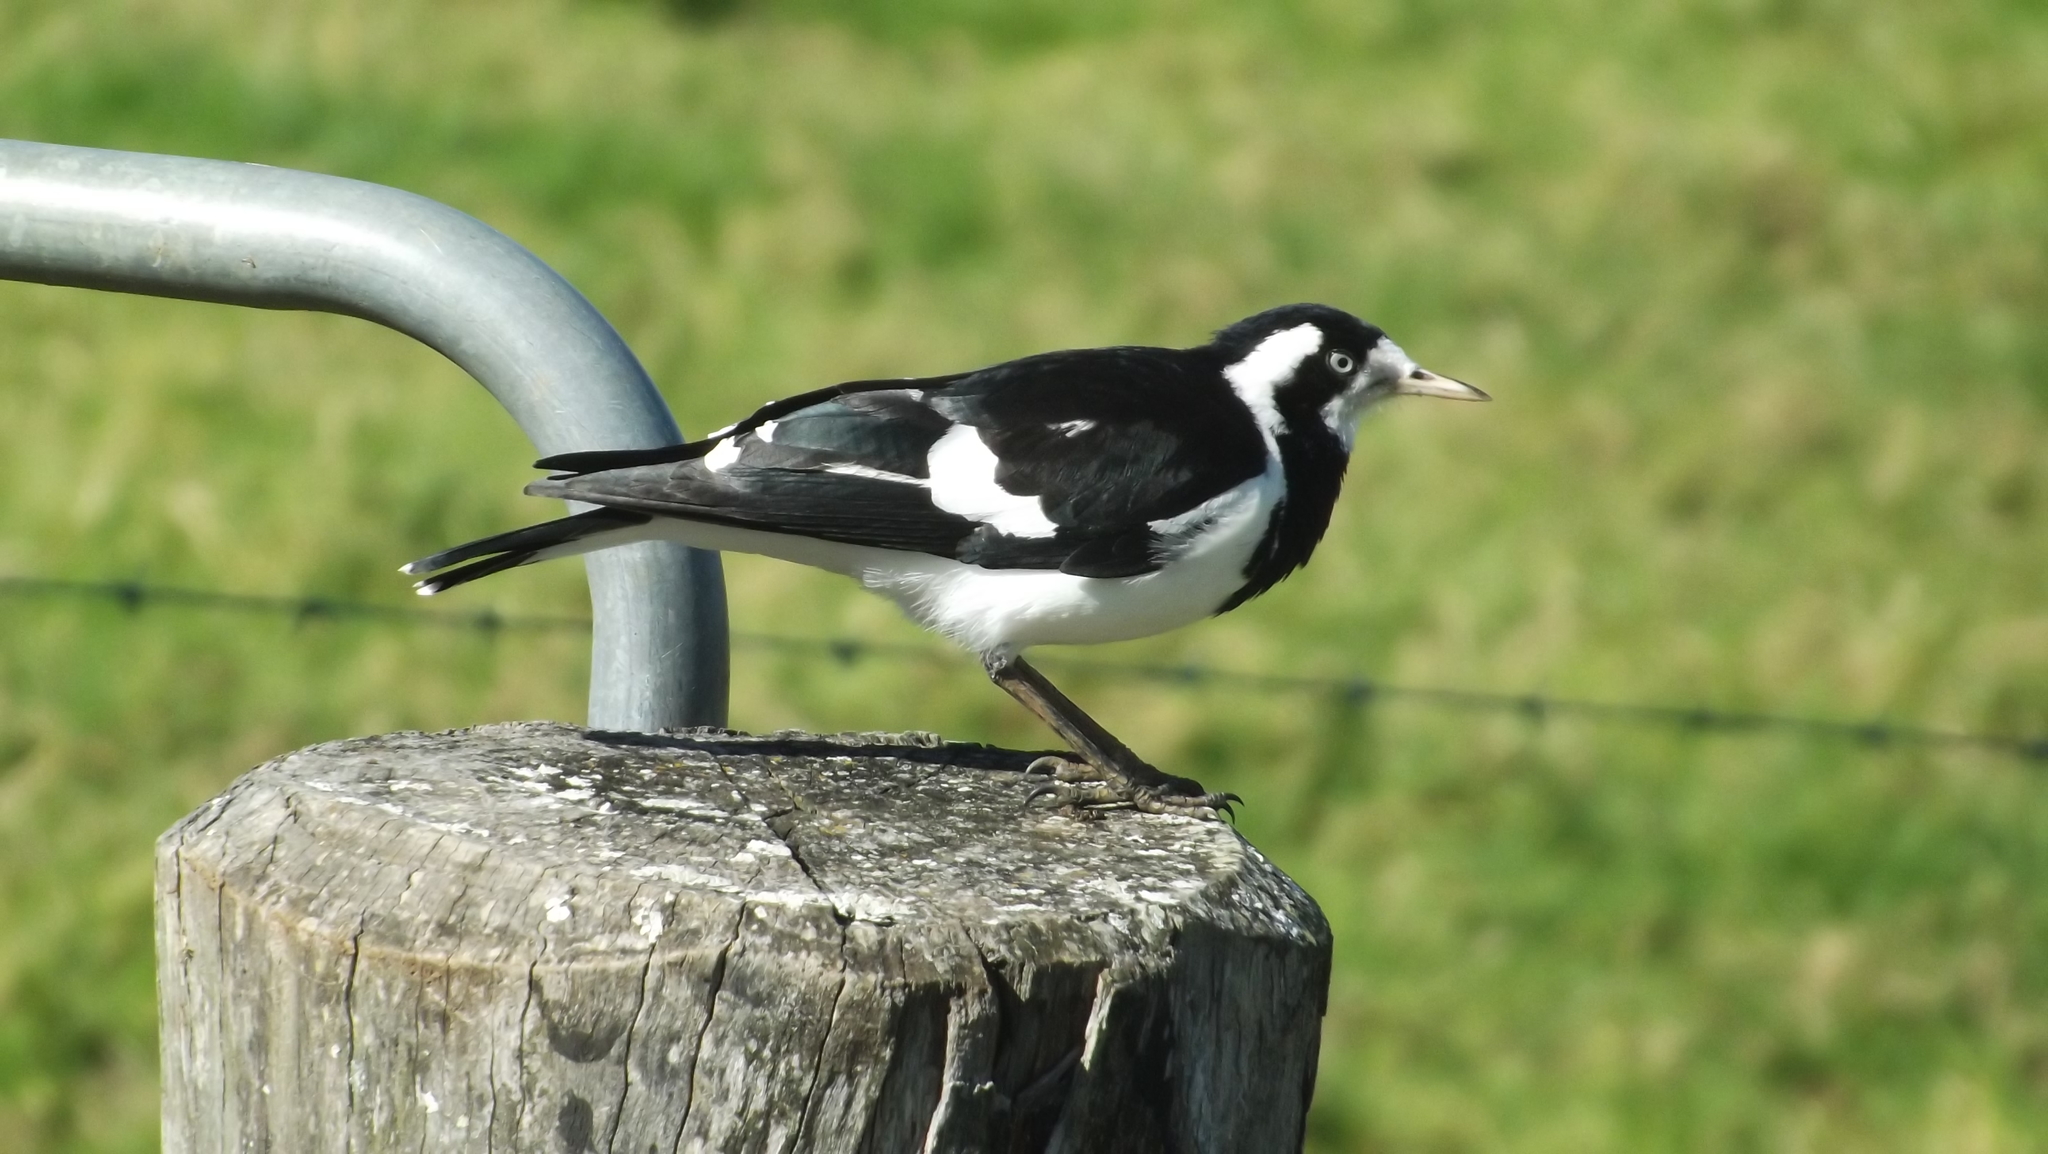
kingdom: Animalia
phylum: Chordata
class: Aves
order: Passeriformes
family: Monarchidae
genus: Grallina
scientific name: Grallina cyanoleuca
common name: Magpie-lark
